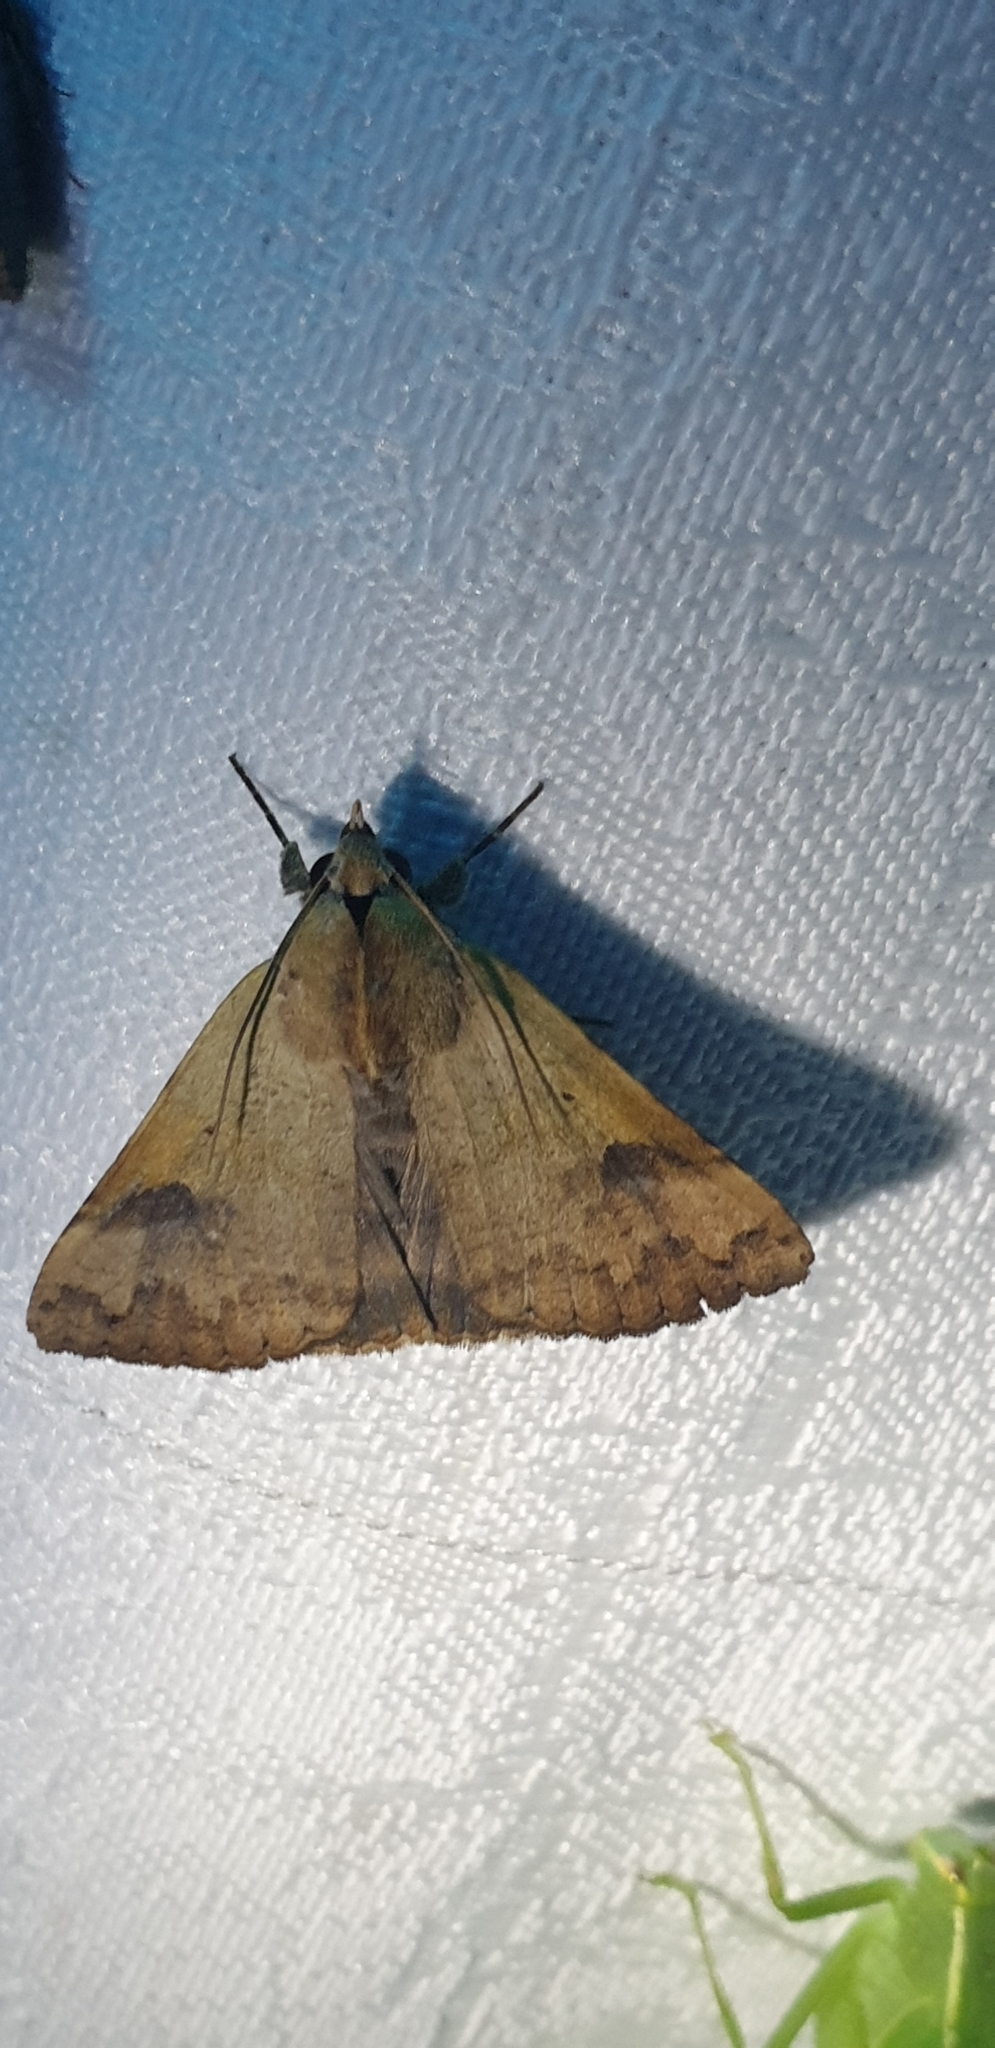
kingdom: Animalia
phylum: Arthropoda
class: Insecta
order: Lepidoptera
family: Erebidae
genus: Ophiusa
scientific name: Ophiusa tirhaca
